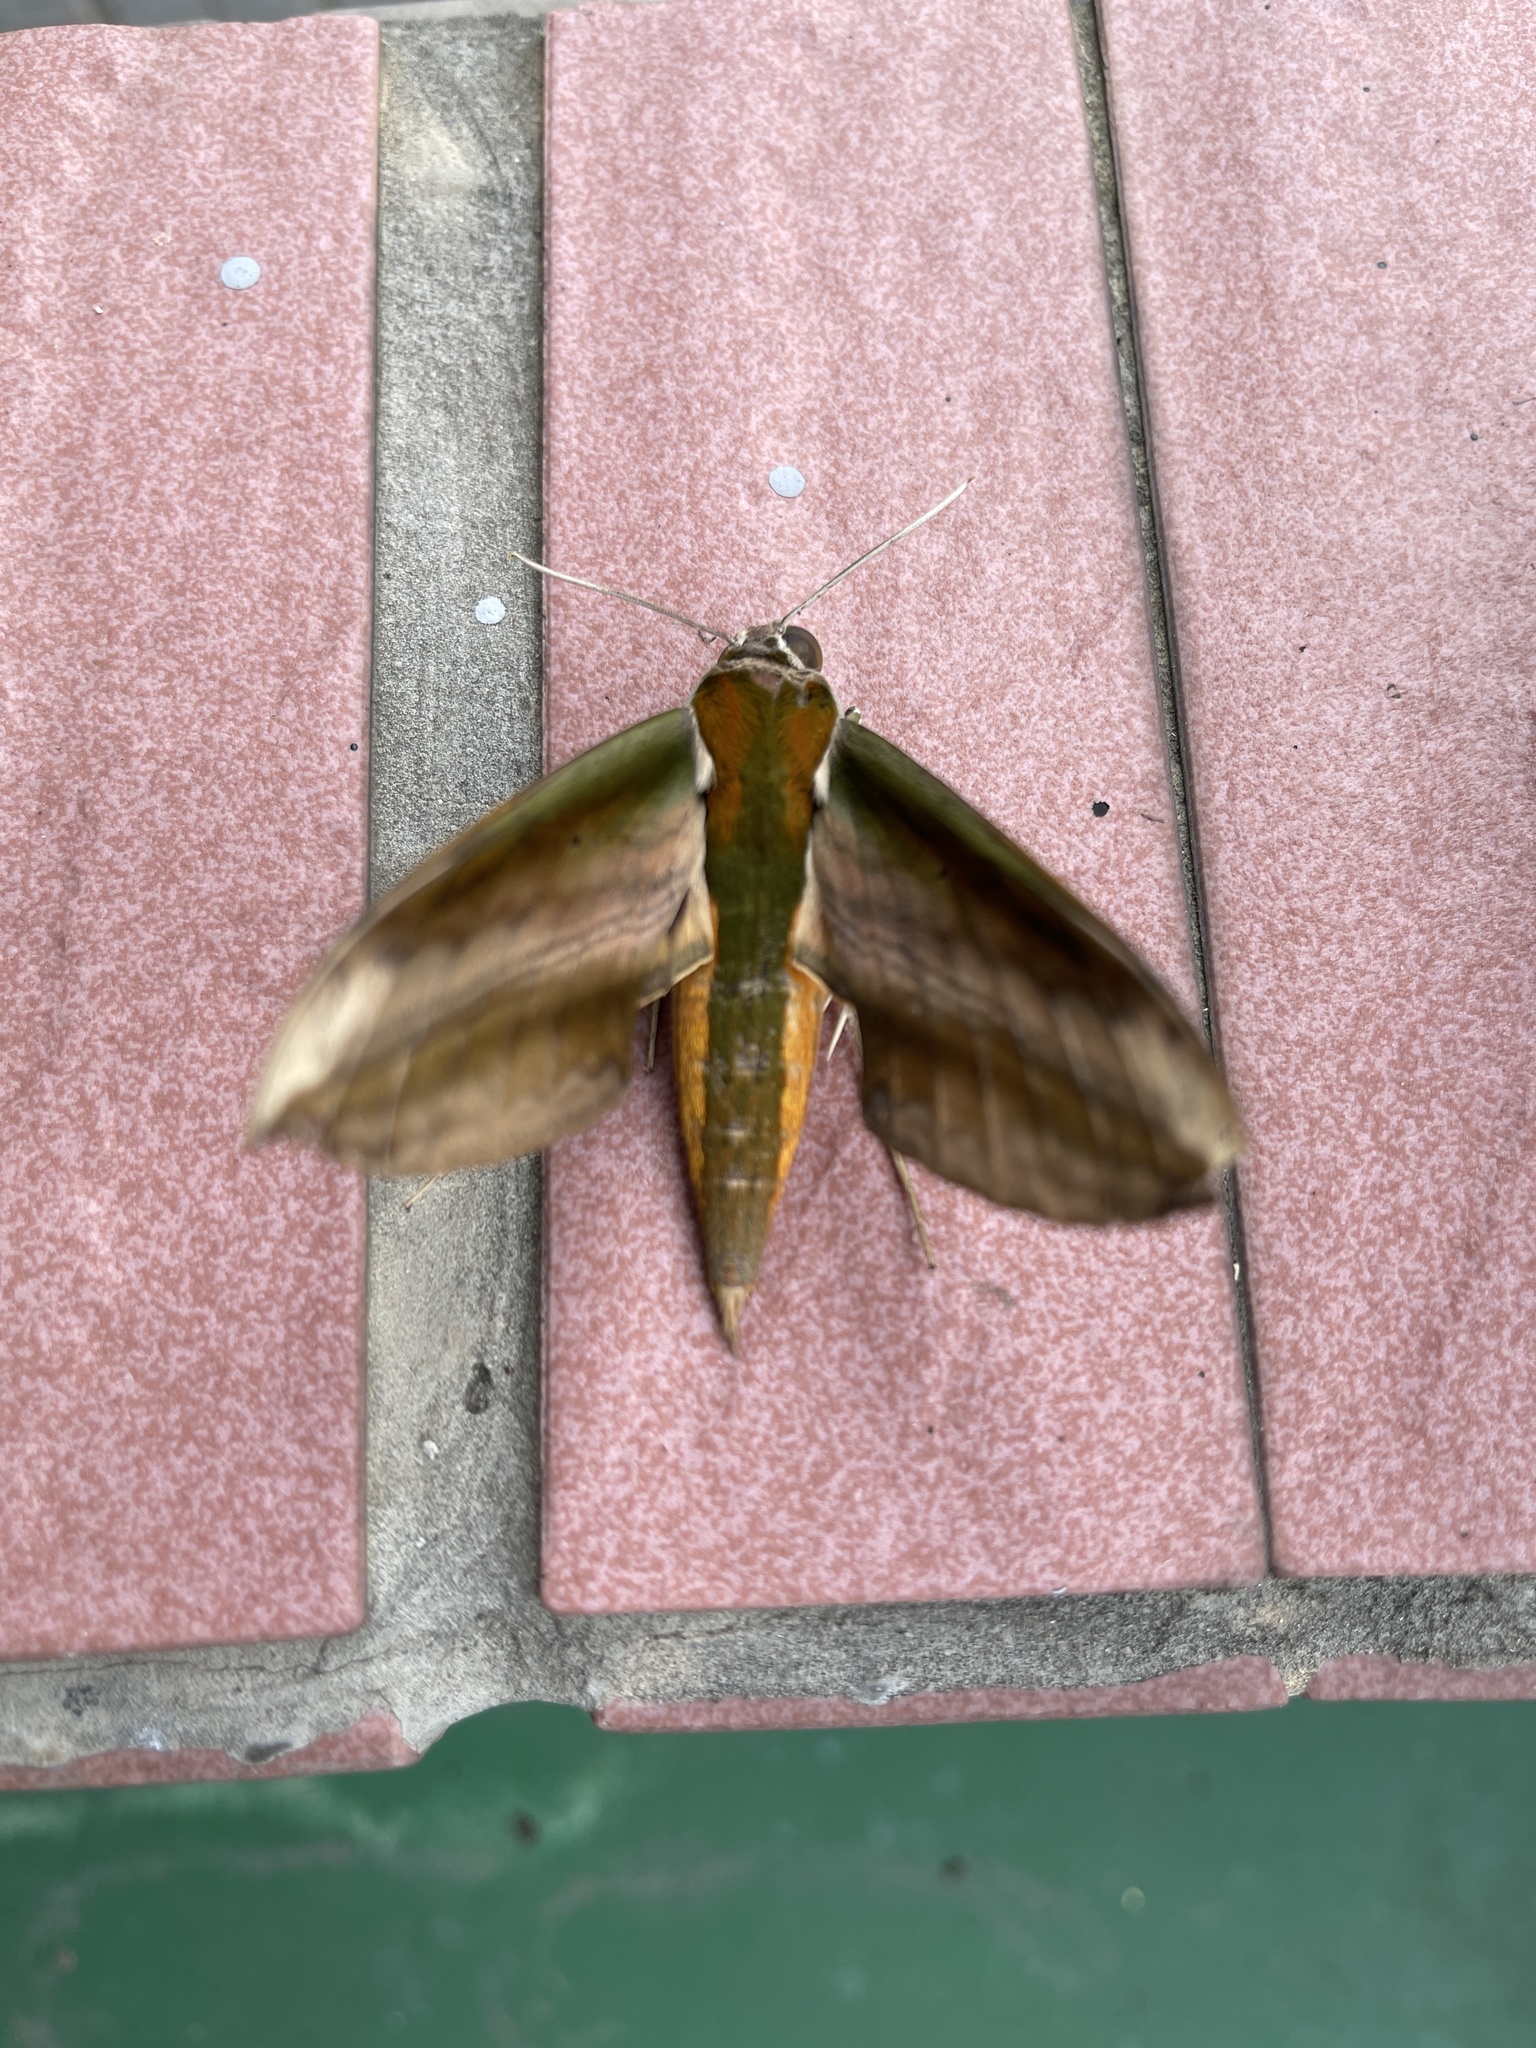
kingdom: Animalia
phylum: Arthropoda
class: Insecta
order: Lepidoptera
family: Sphingidae
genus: Theretra
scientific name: Theretra nessus
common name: Yam hawk moth
